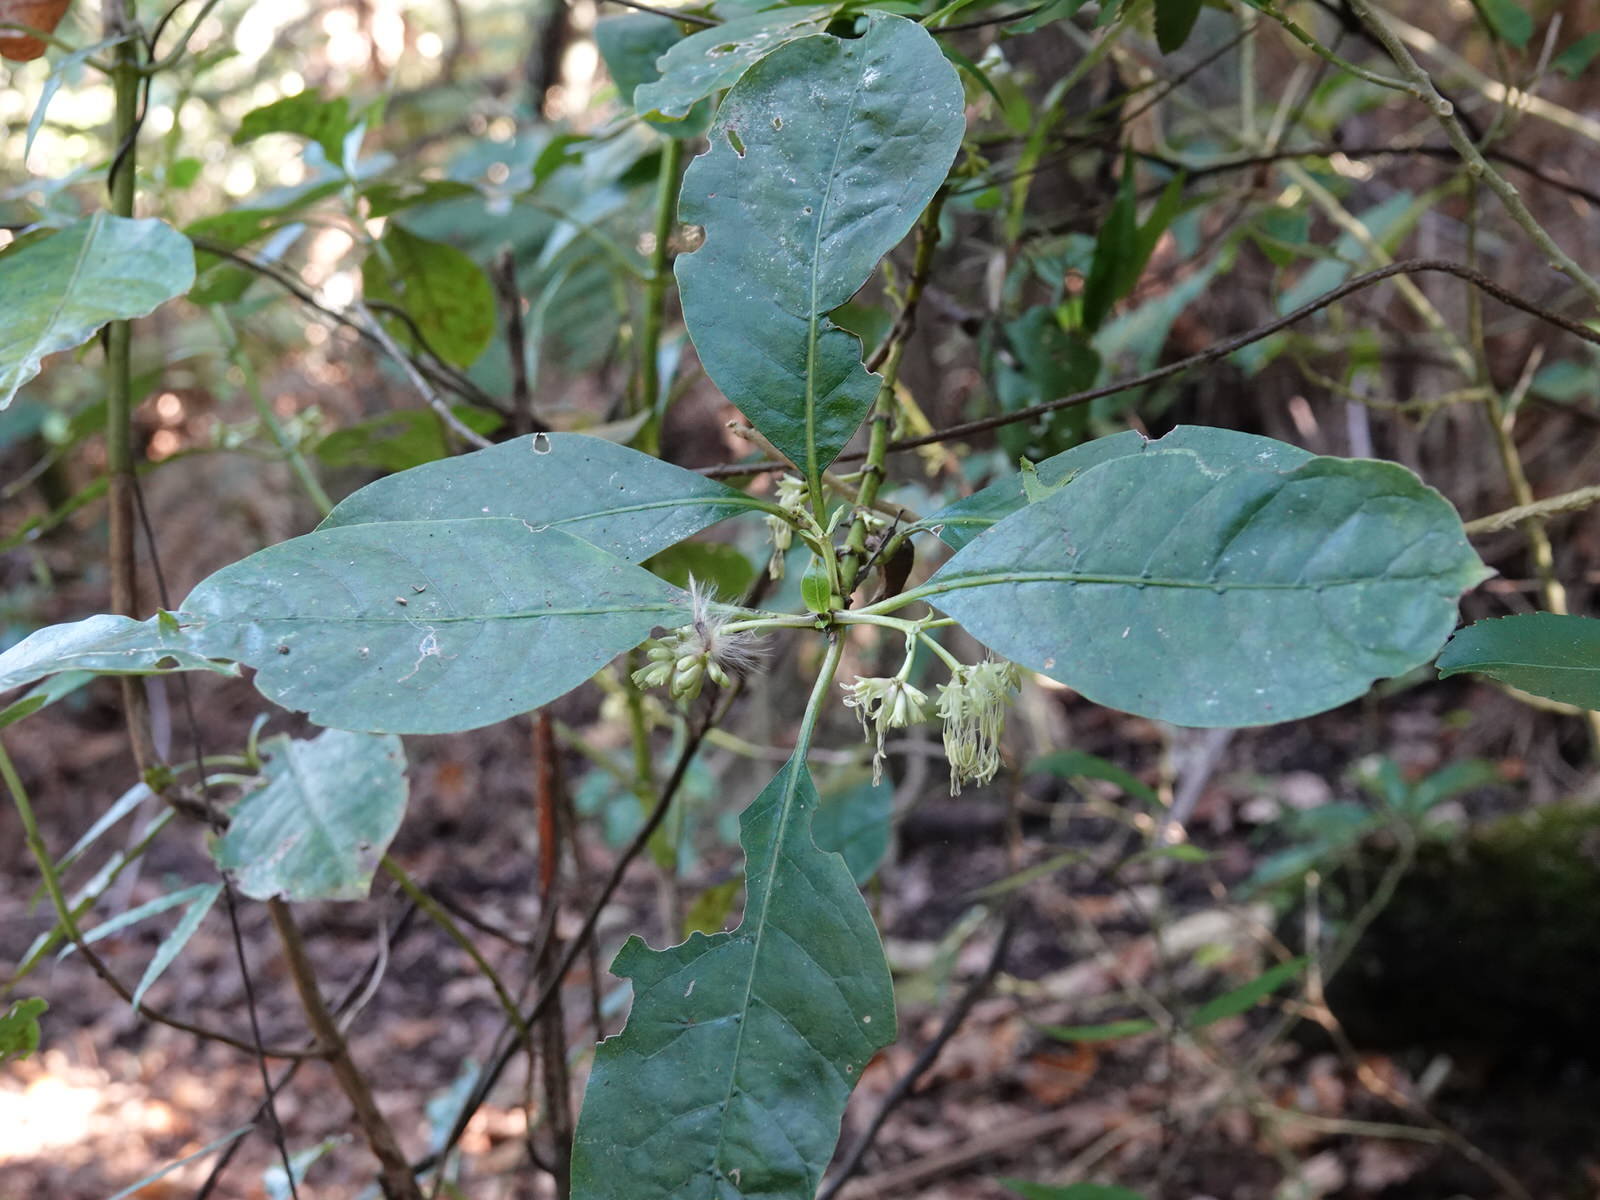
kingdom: Plantae
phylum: Tracheophyta
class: Magnoliopsida
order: Gentianales
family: Rubiaceae
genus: Coprosma
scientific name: Coprosma autumnalis
